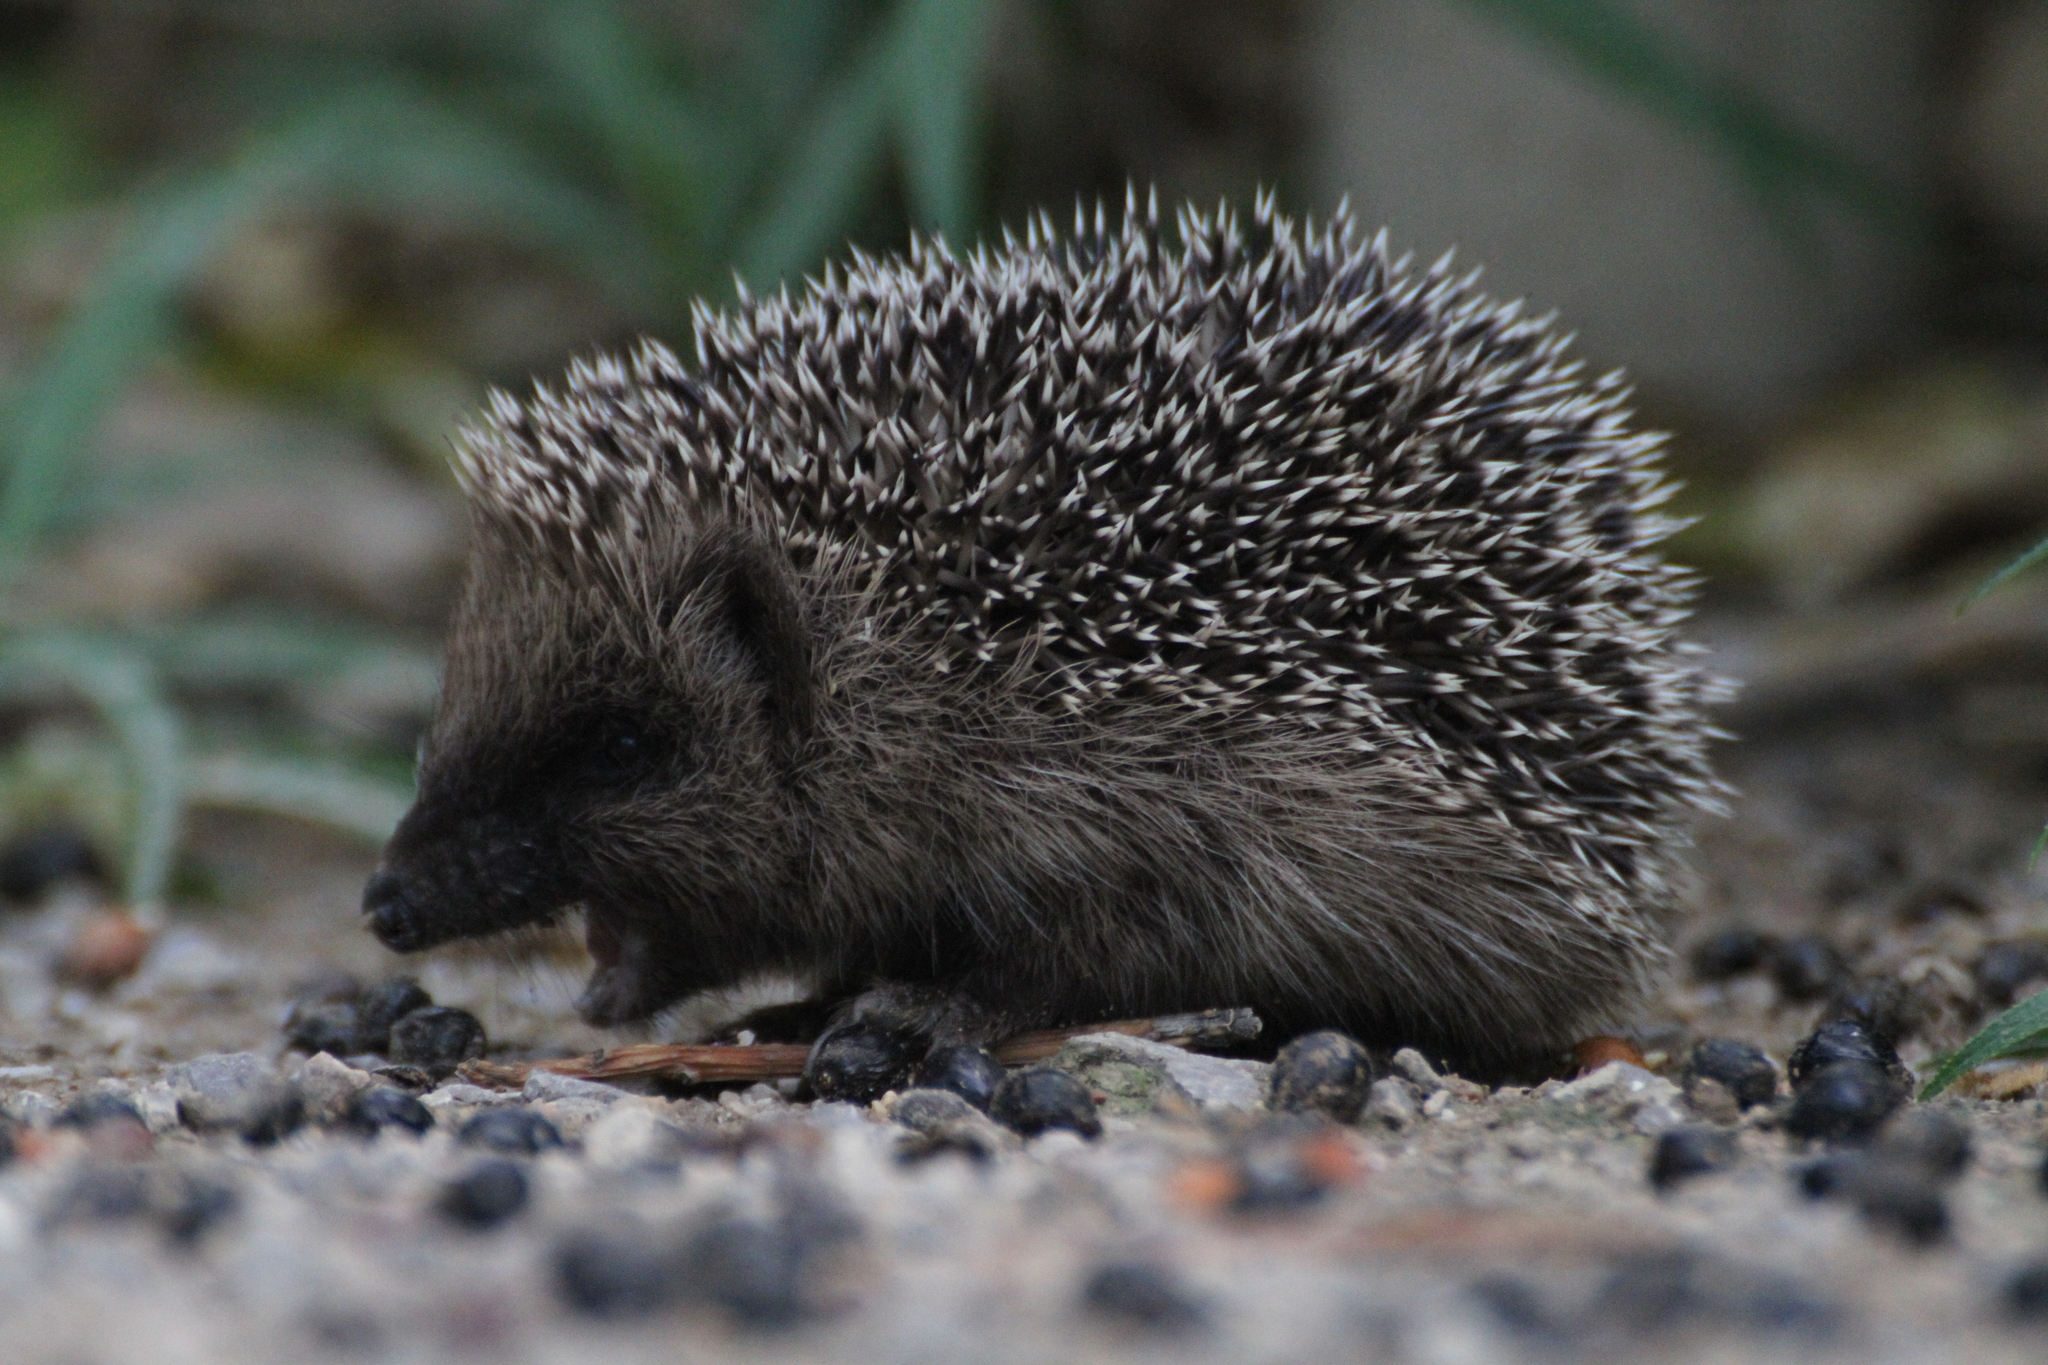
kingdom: Animalia
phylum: Chordata
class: Mammalia
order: Erinaceomorpha
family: Erinaceidae
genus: Erinaceus
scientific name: Erinaceus europaeus
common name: West european hedgehog
